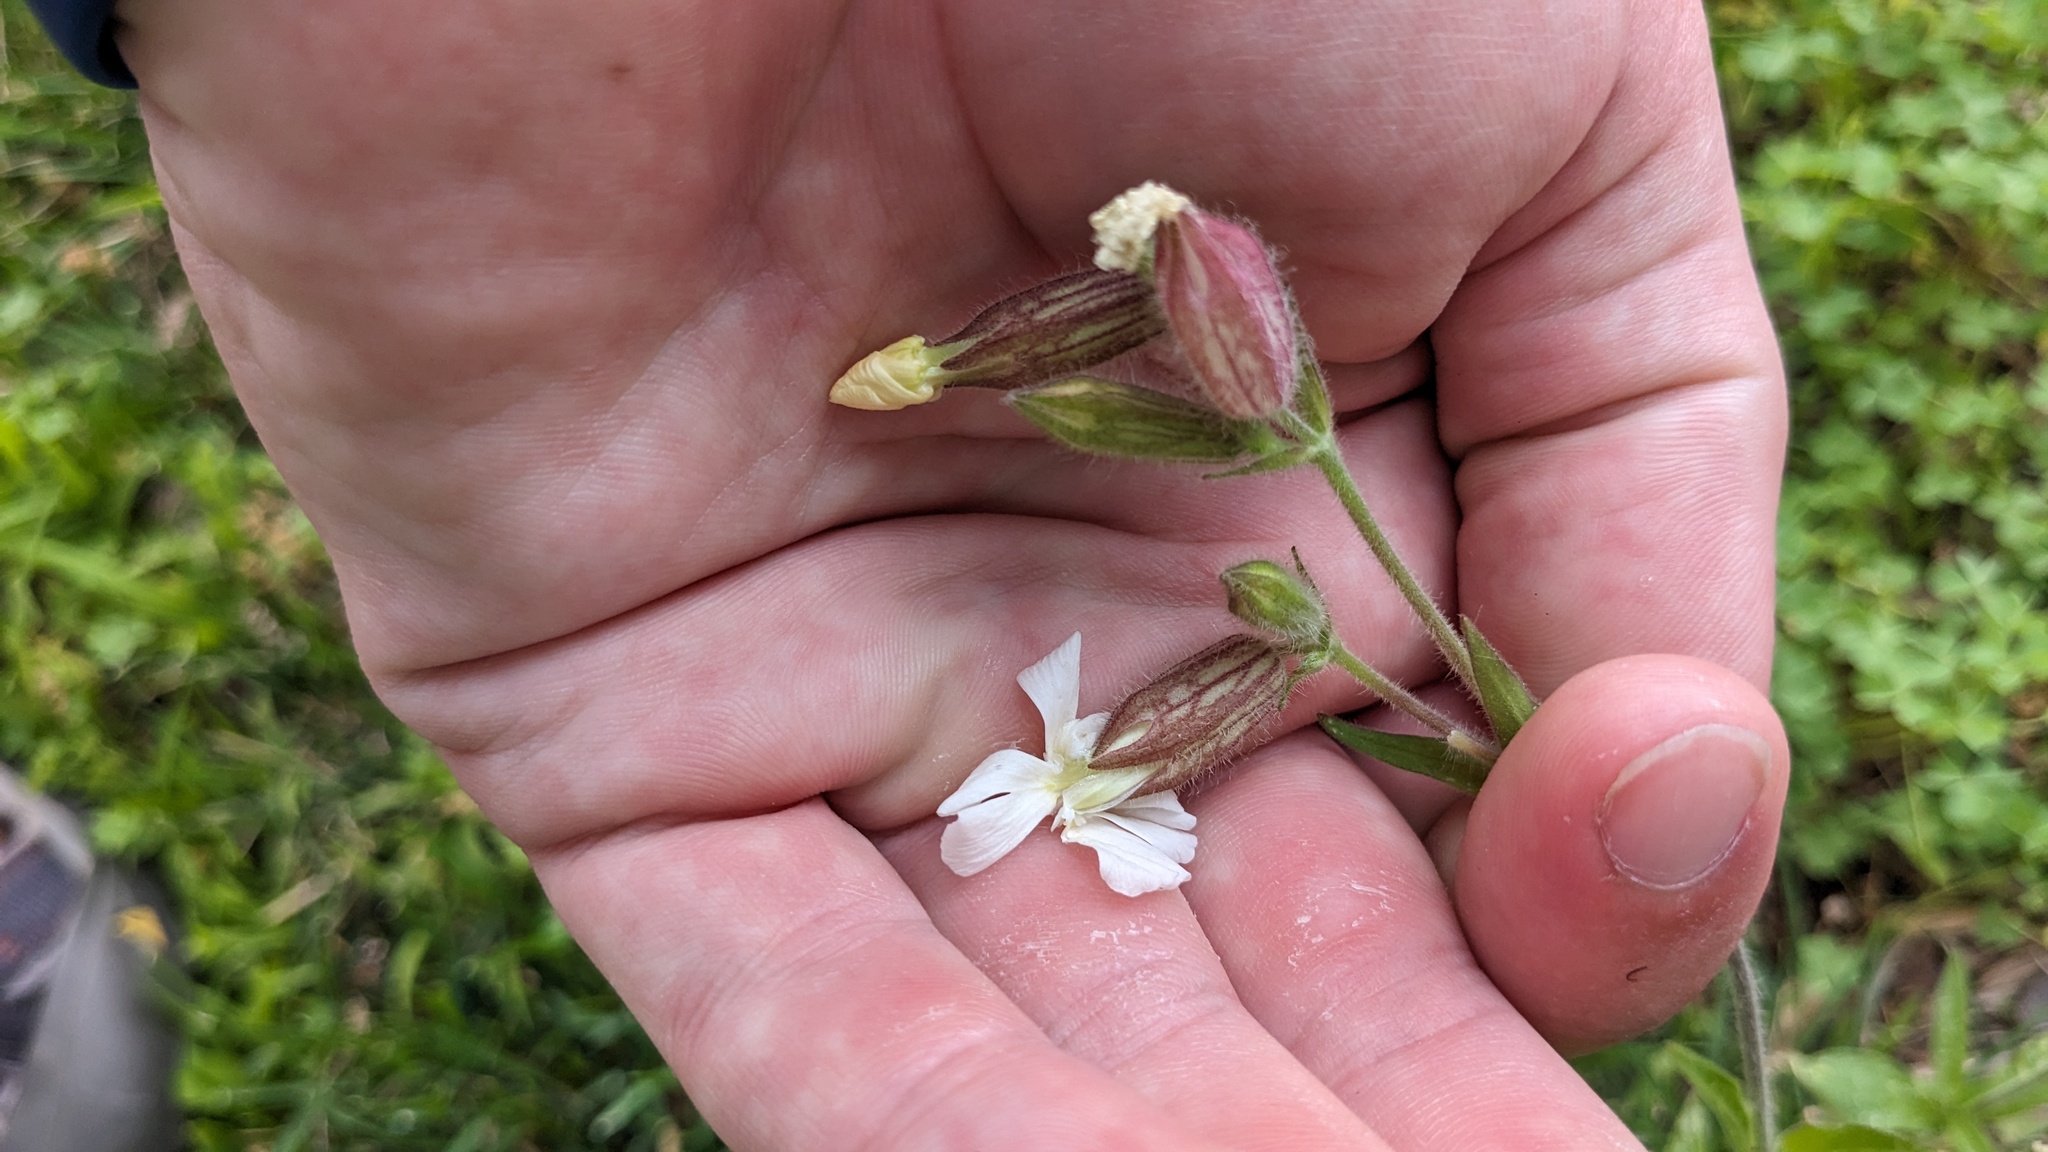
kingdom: Plantae
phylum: Tracheophyta
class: Magnoliopsida
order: Caryophyllales
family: Caryophyllaceae
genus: Silene
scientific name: Silene latifolia
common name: White campion
